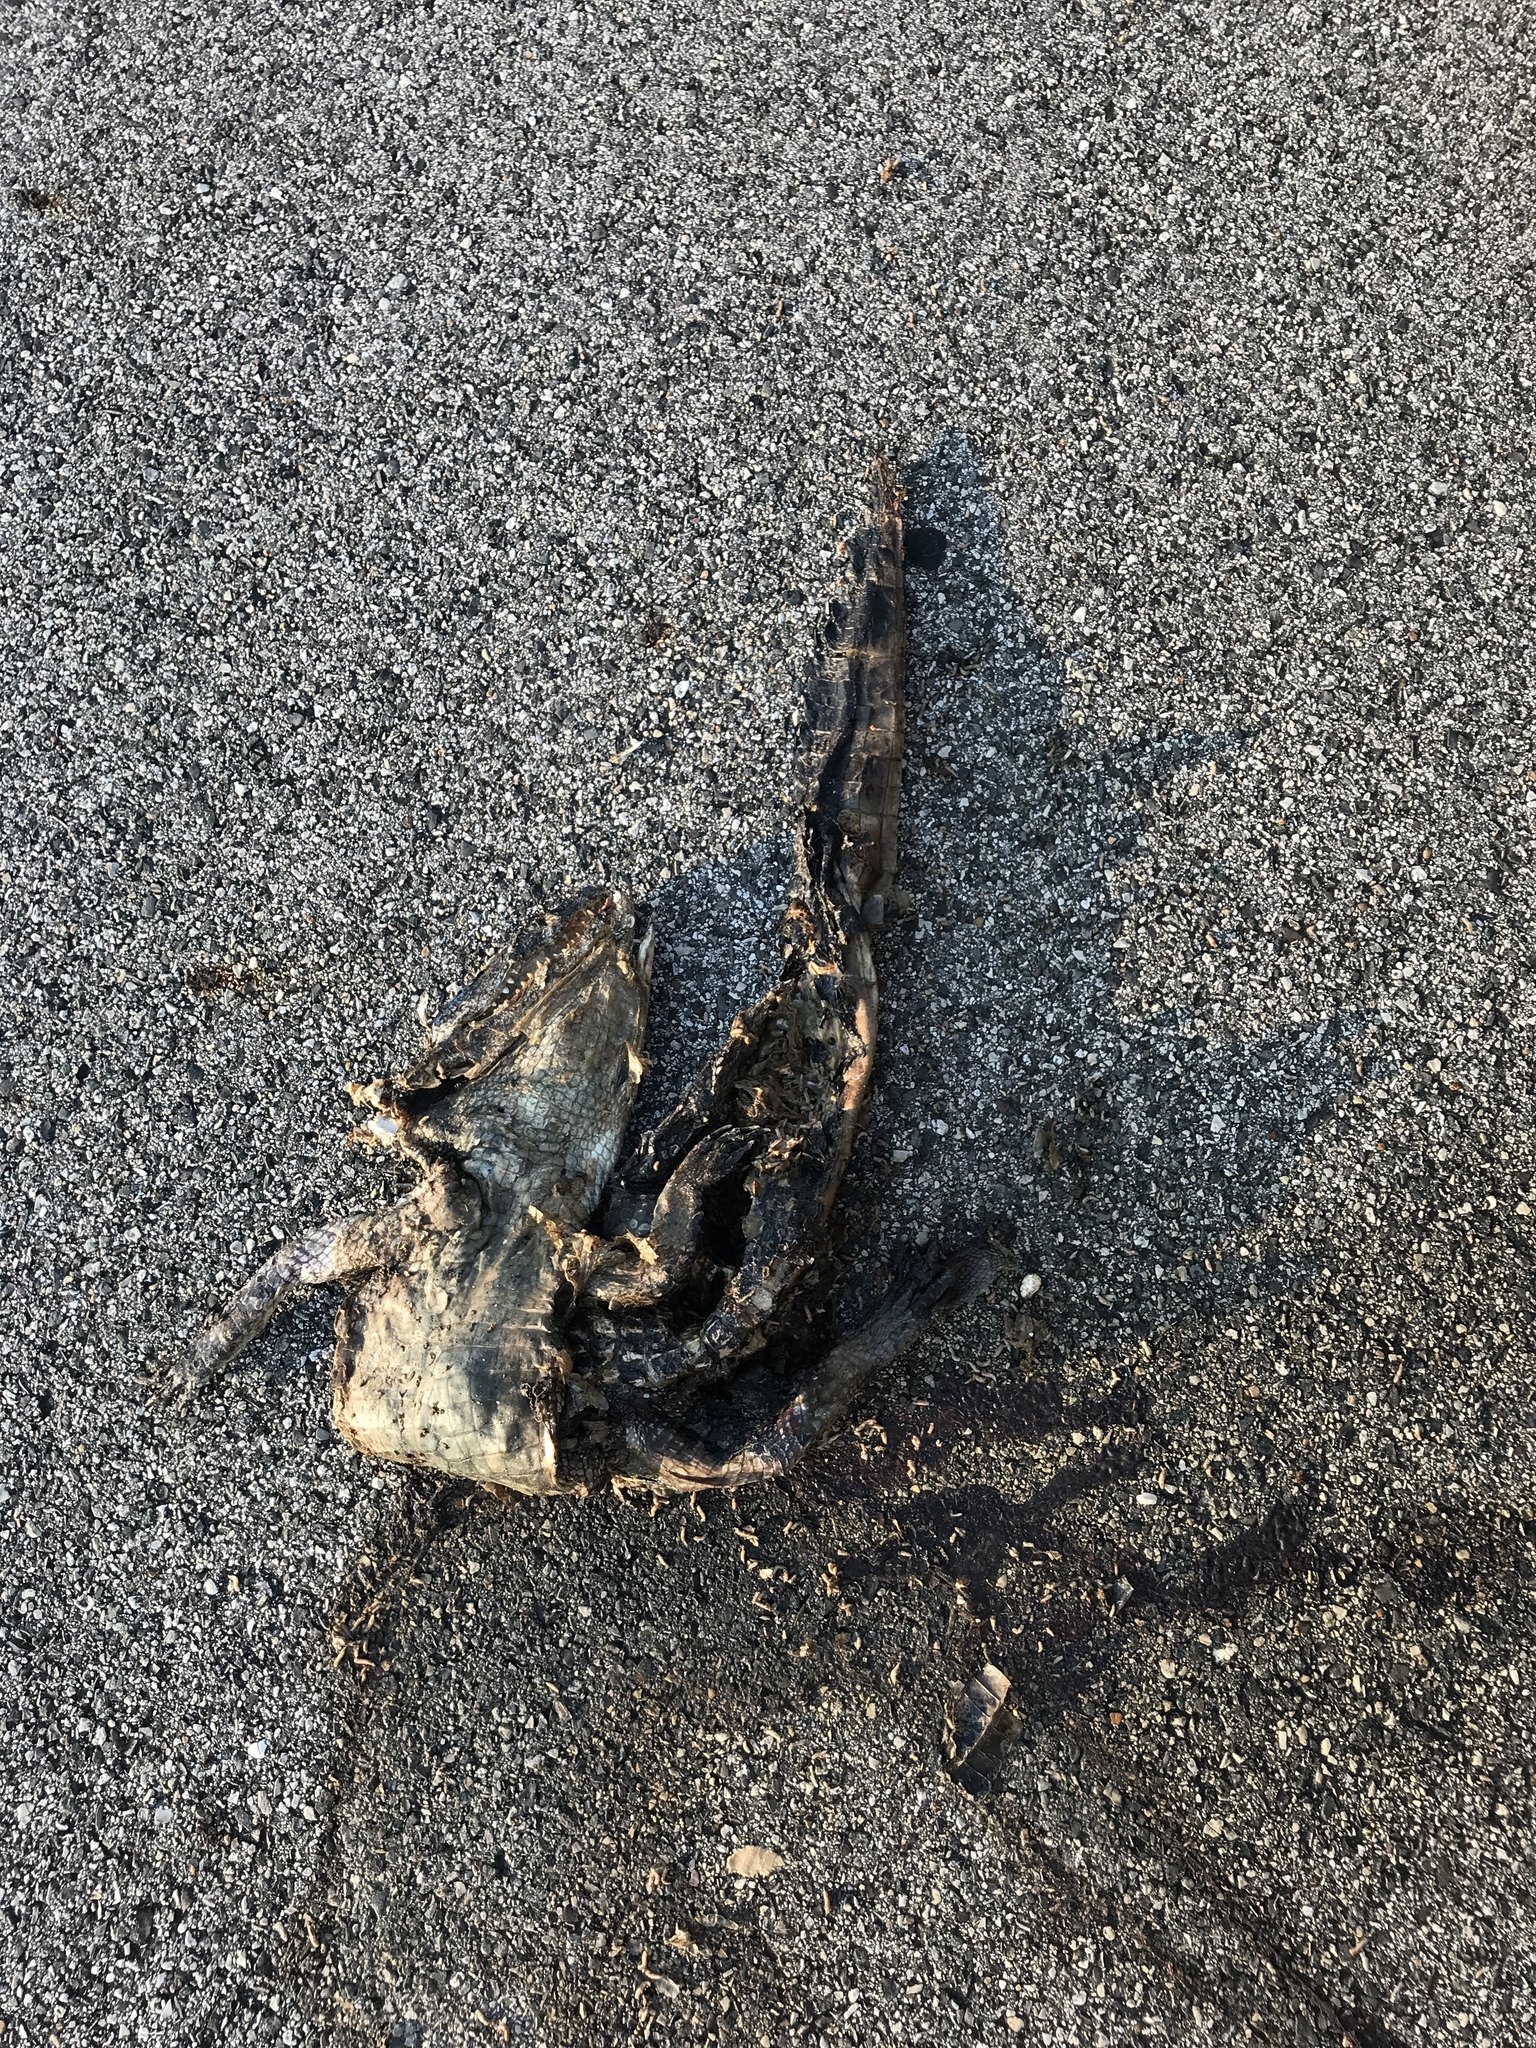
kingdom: Animalia
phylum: Chordata
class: Crocodylia
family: Alligatoridae
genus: Alligator
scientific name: Alligator mississippiensis
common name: American alligator
